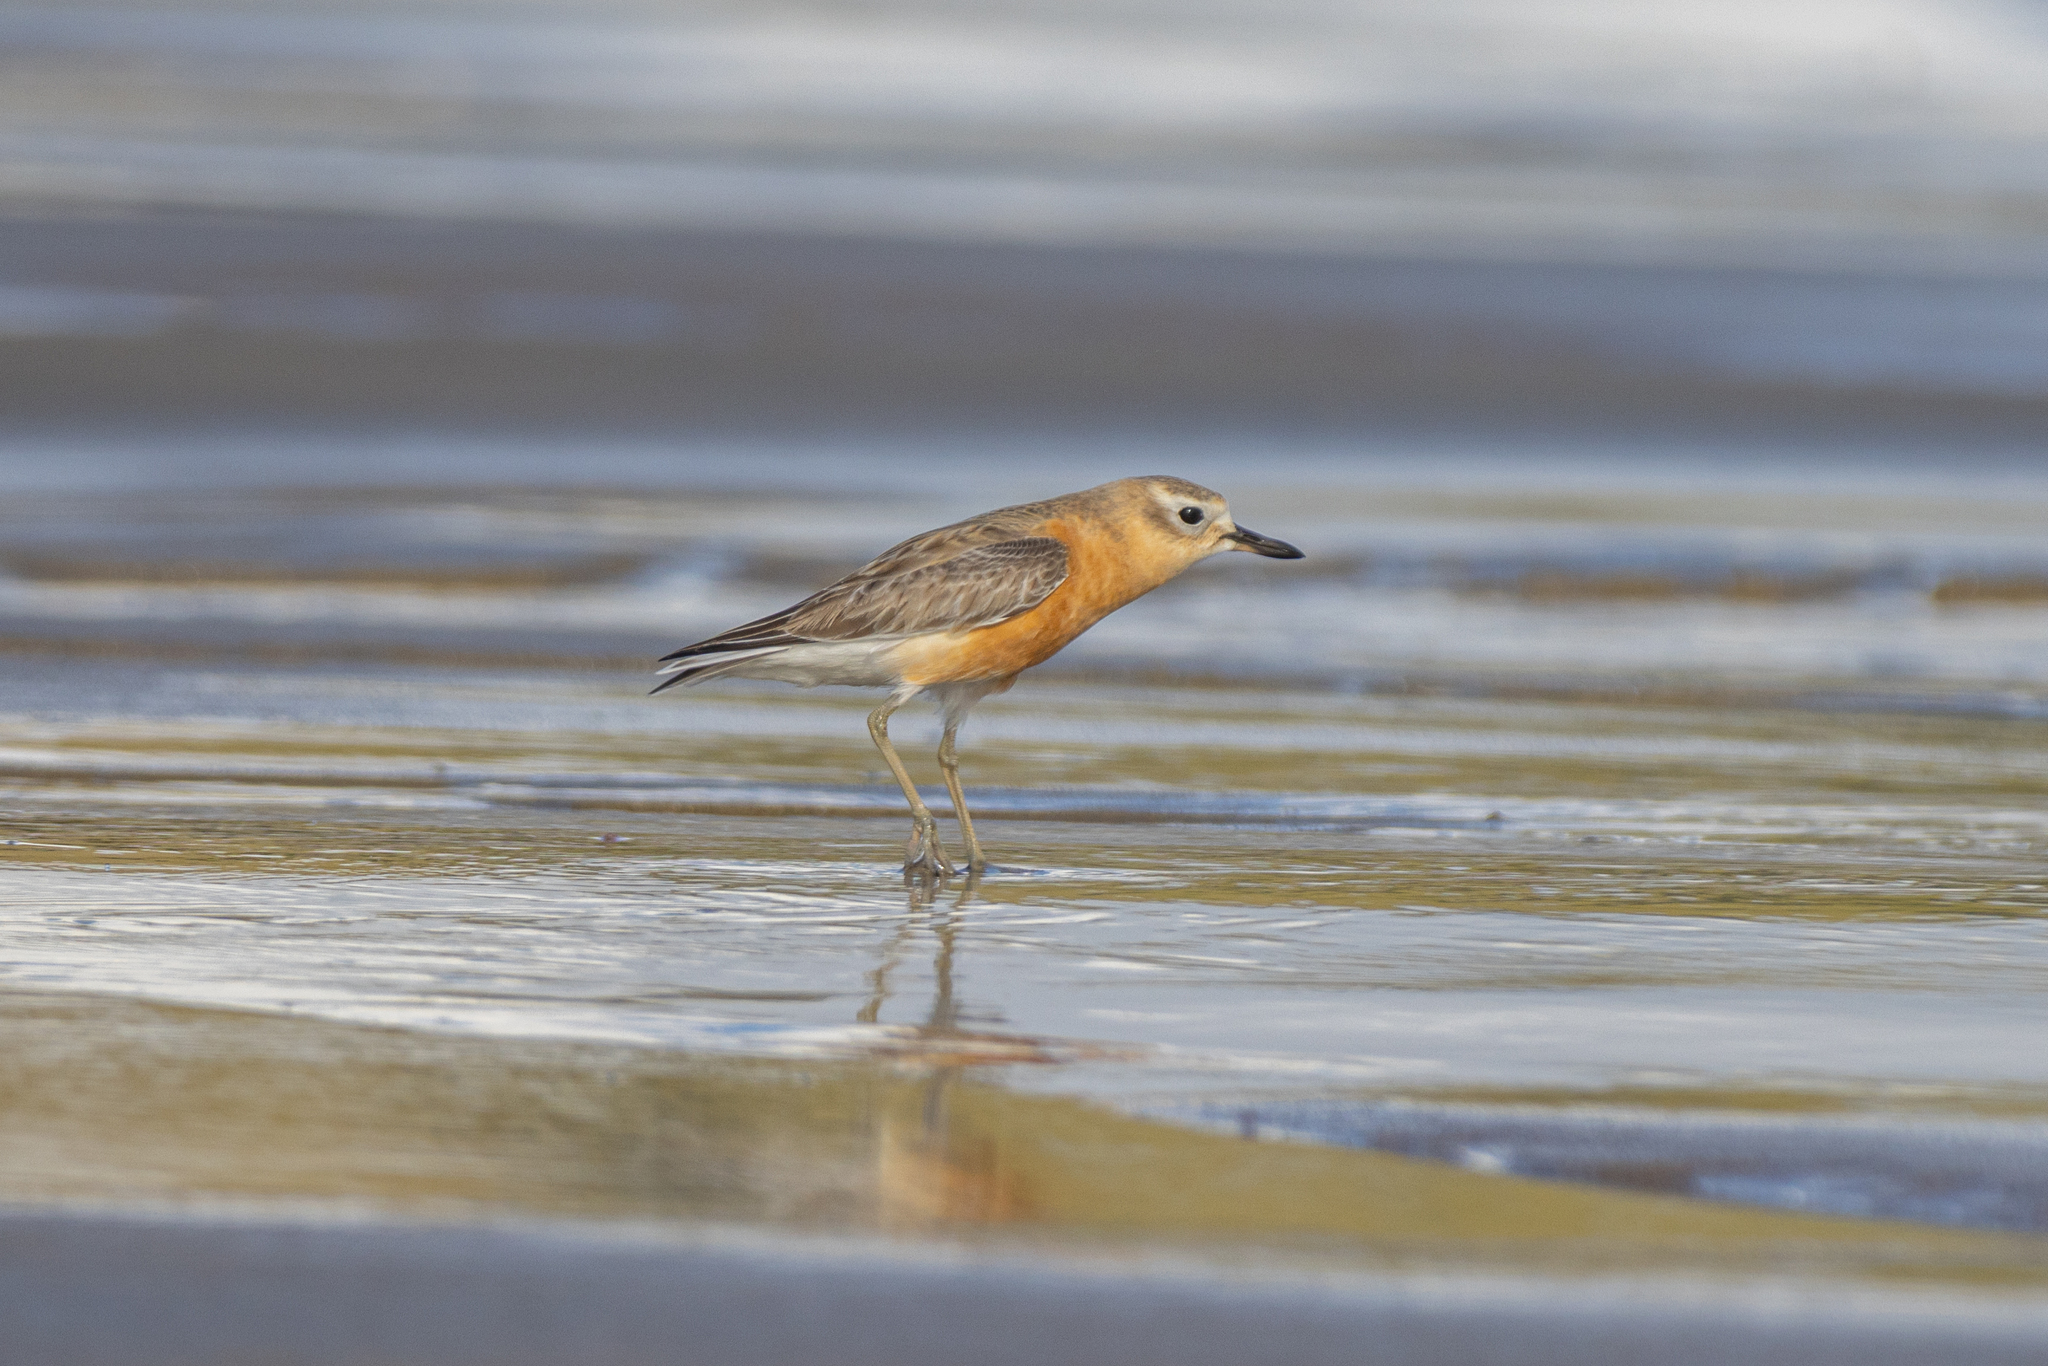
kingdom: Animalia
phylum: Chordata
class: Aves
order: Charadriiformes
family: Charadriidae
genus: Anarhynchus
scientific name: Anarhynchus
